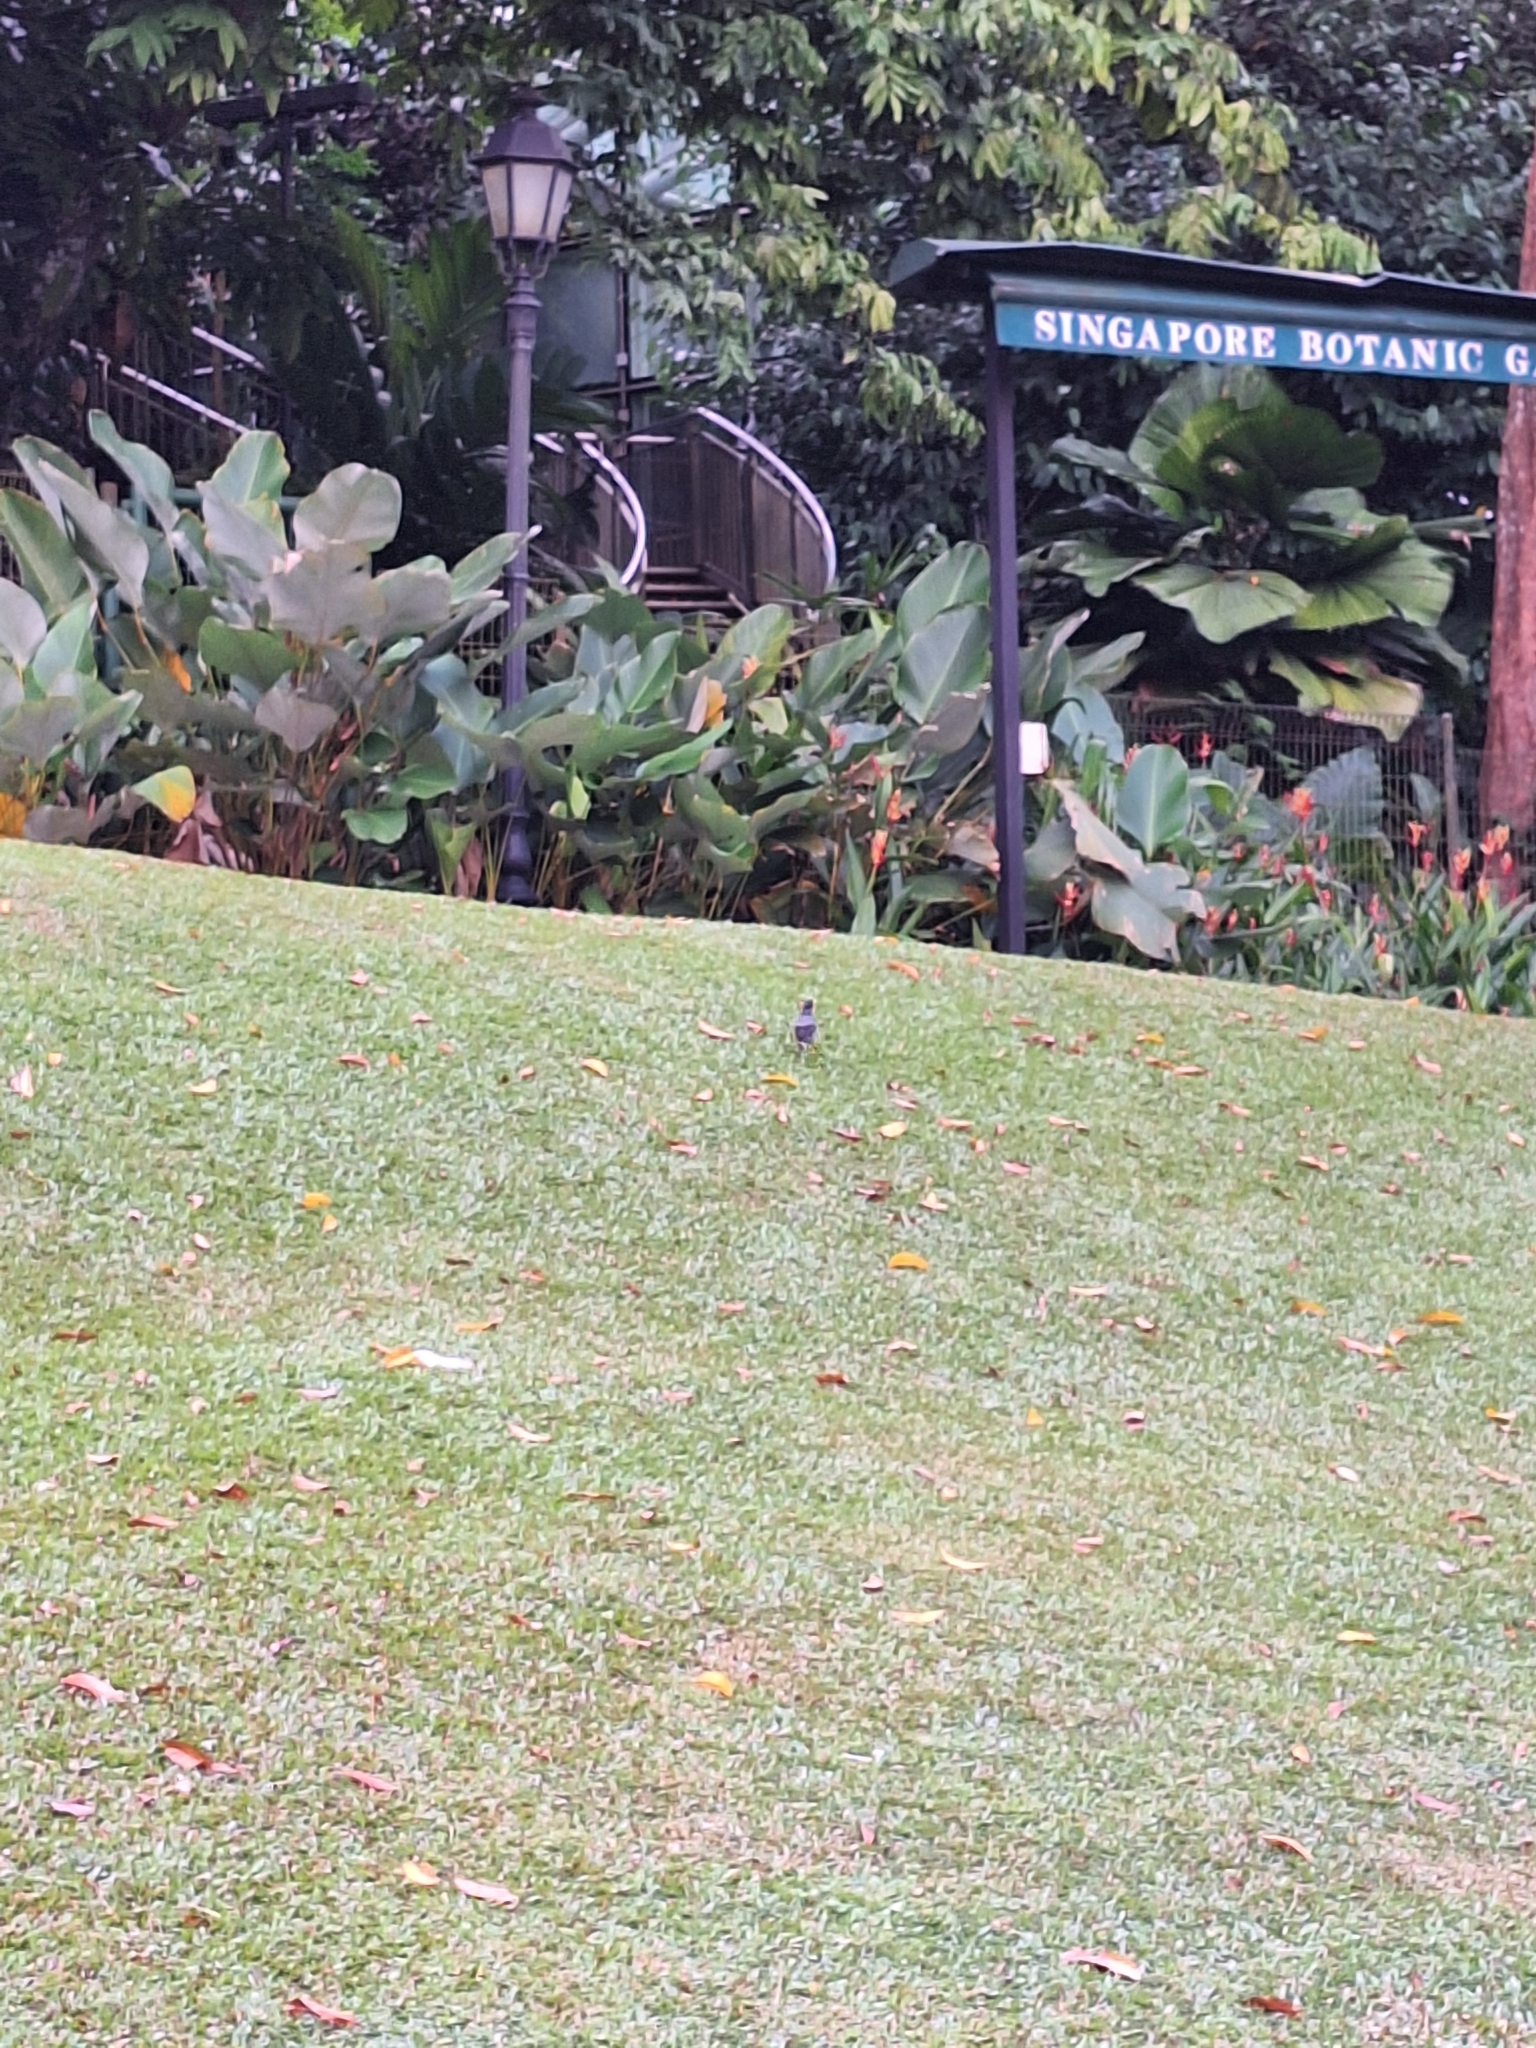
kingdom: Animalia
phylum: Chordata
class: Aves
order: Passeriformes
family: Sturnidae
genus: Acridotheres
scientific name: Acridotheres javanicus
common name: Javan myna
